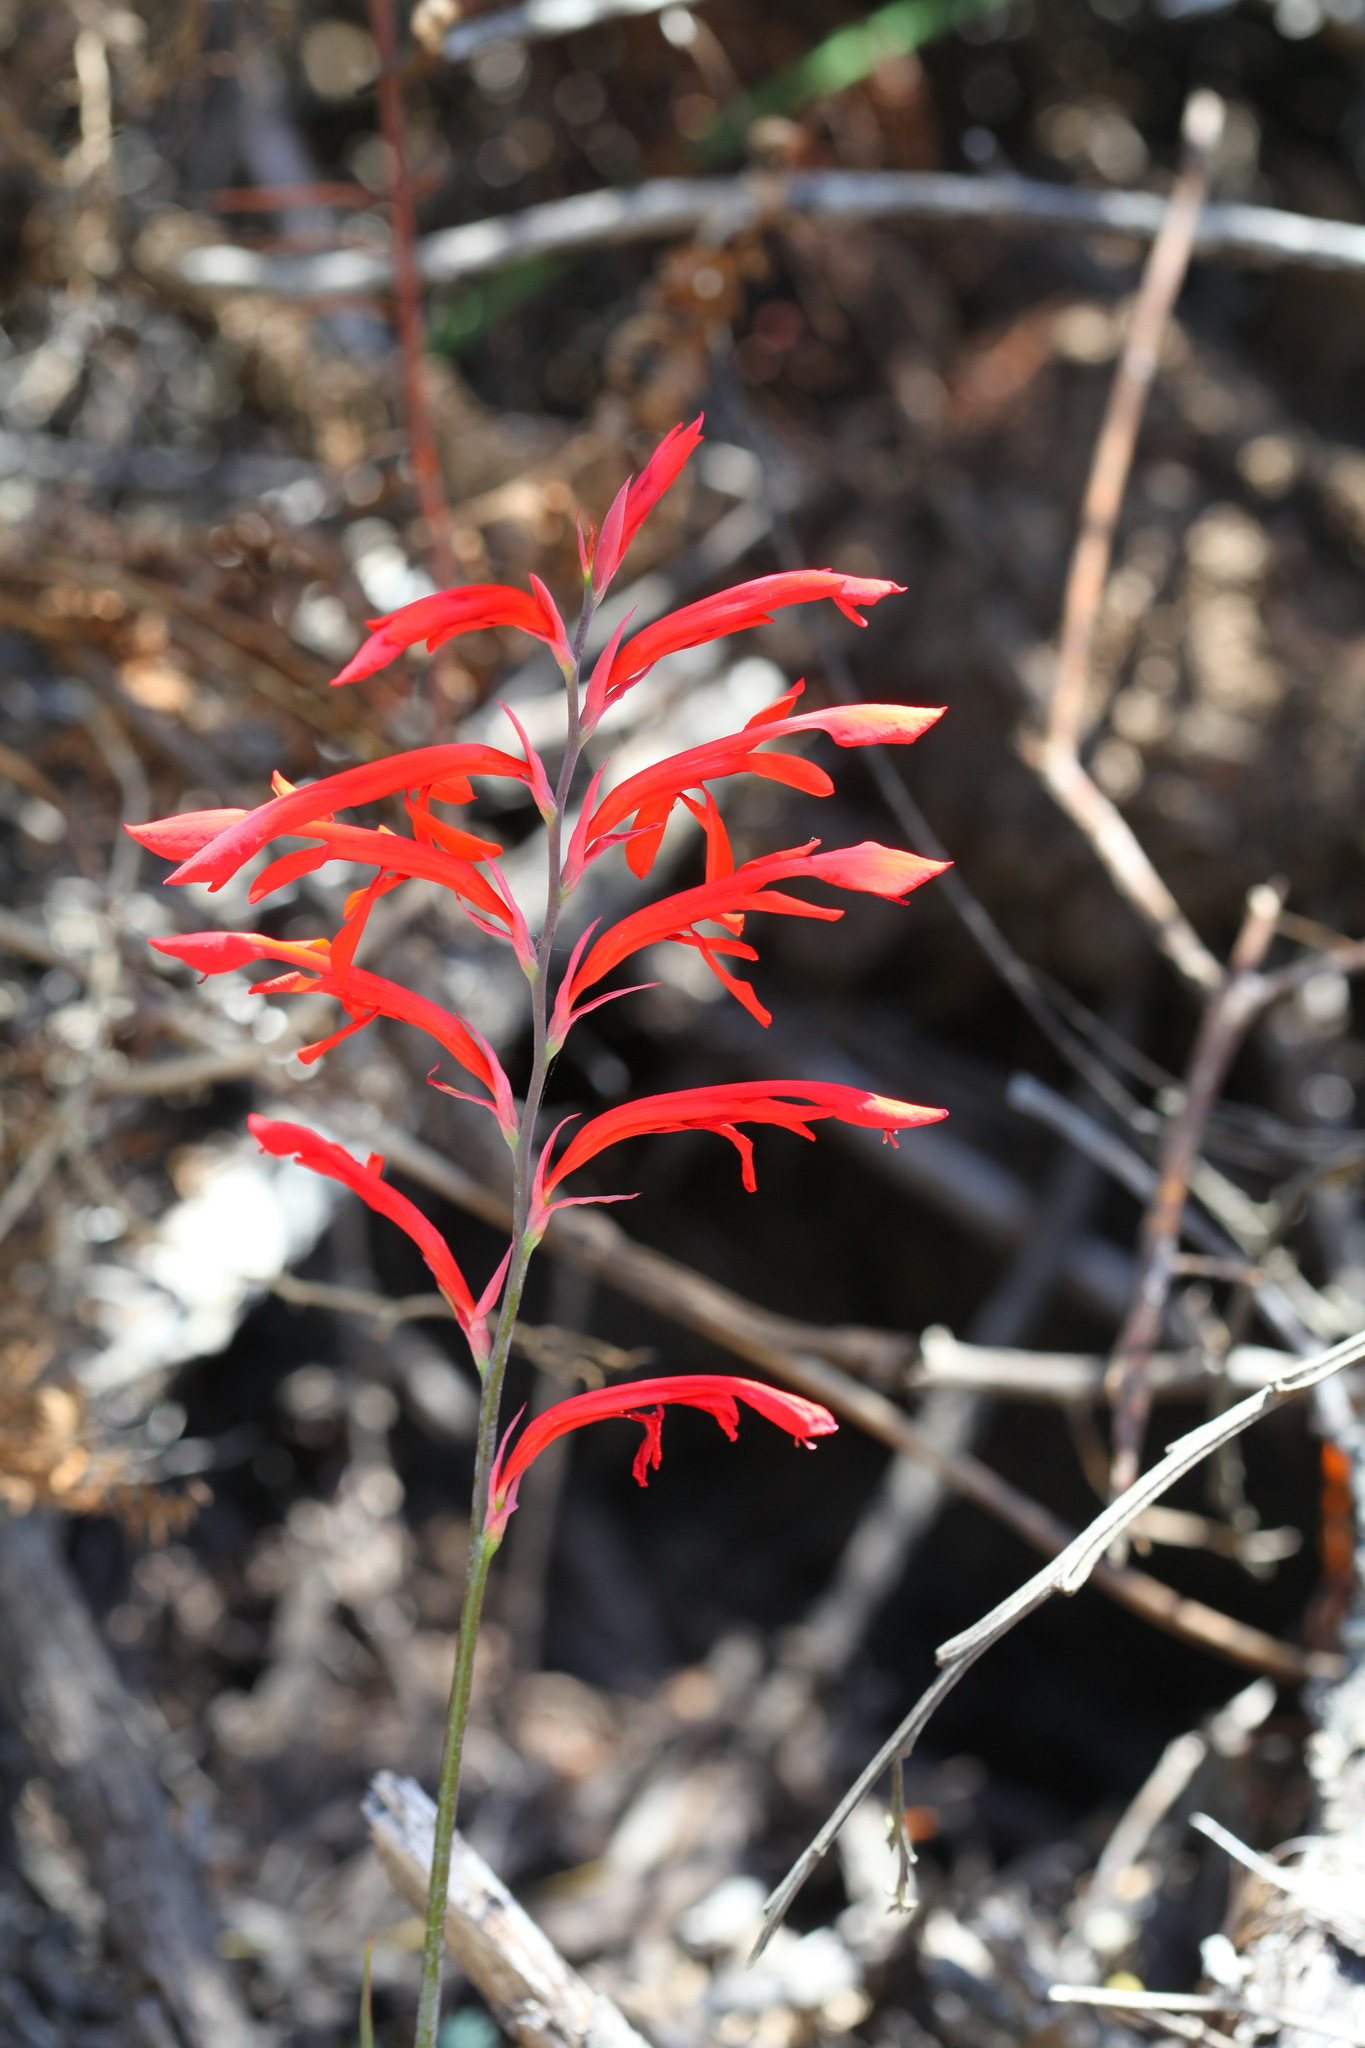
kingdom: Plantae
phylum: Tracheophyta
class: Liliopsida
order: Asparagales
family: Iridaceae
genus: Tritoniopsis
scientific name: Tritoniopsis caffra
